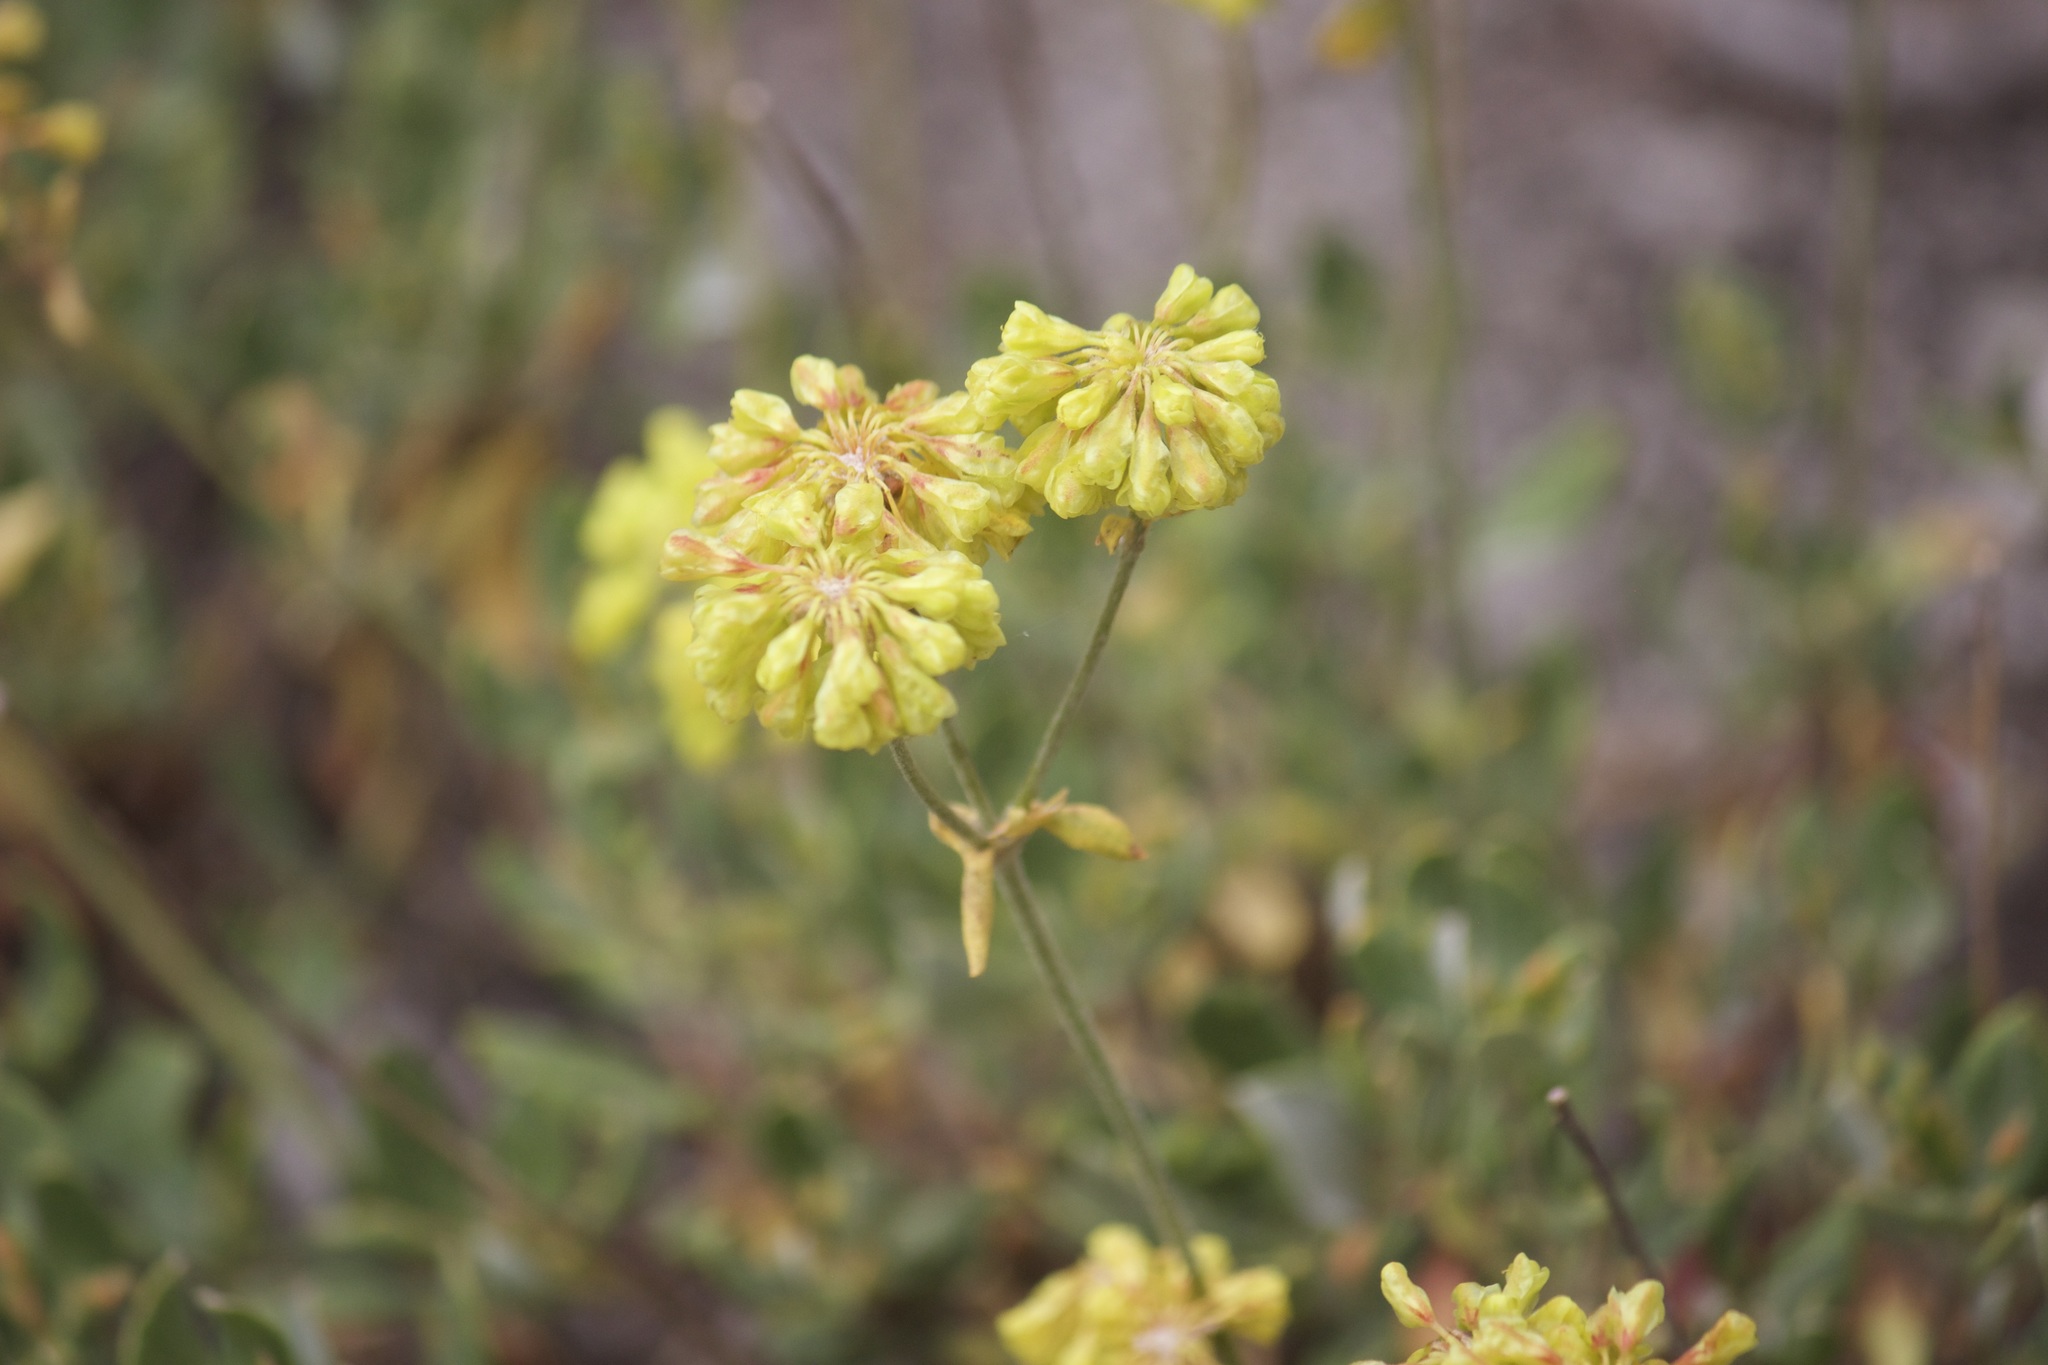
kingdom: Plantae
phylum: Tracheophyta
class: Magnoliopsida
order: Caryophyllales
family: Polygonaceae
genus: Eriogonum
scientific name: Eriogonum umbellatum
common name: Sulfur-buckwheat
